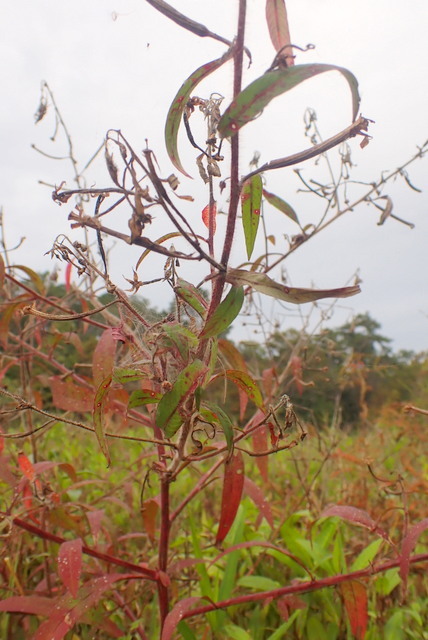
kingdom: Plantae
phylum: Tracheophyta
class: Magnoliopsida
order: Myrtales
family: Onagraceae
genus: Ludwigia
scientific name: Ludwigia leptocarpa
